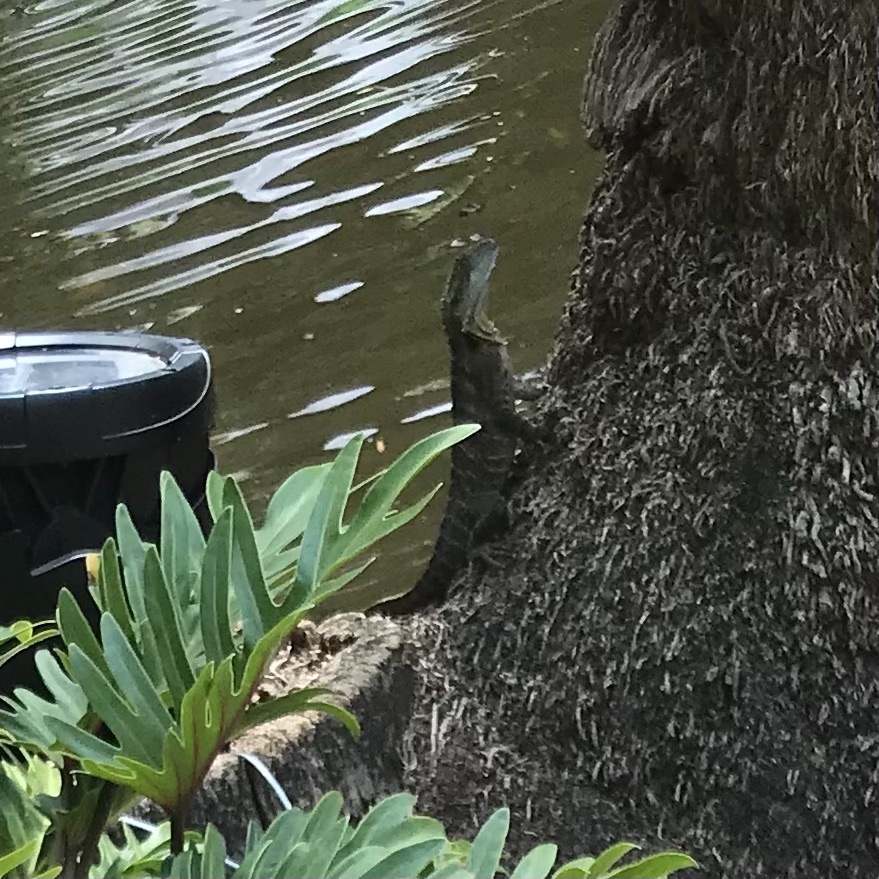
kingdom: Animalia
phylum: Chordata
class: Squamata
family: Agamidae
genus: Intellagama
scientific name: Intellagama lesueurii
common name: Eastern water dragon
